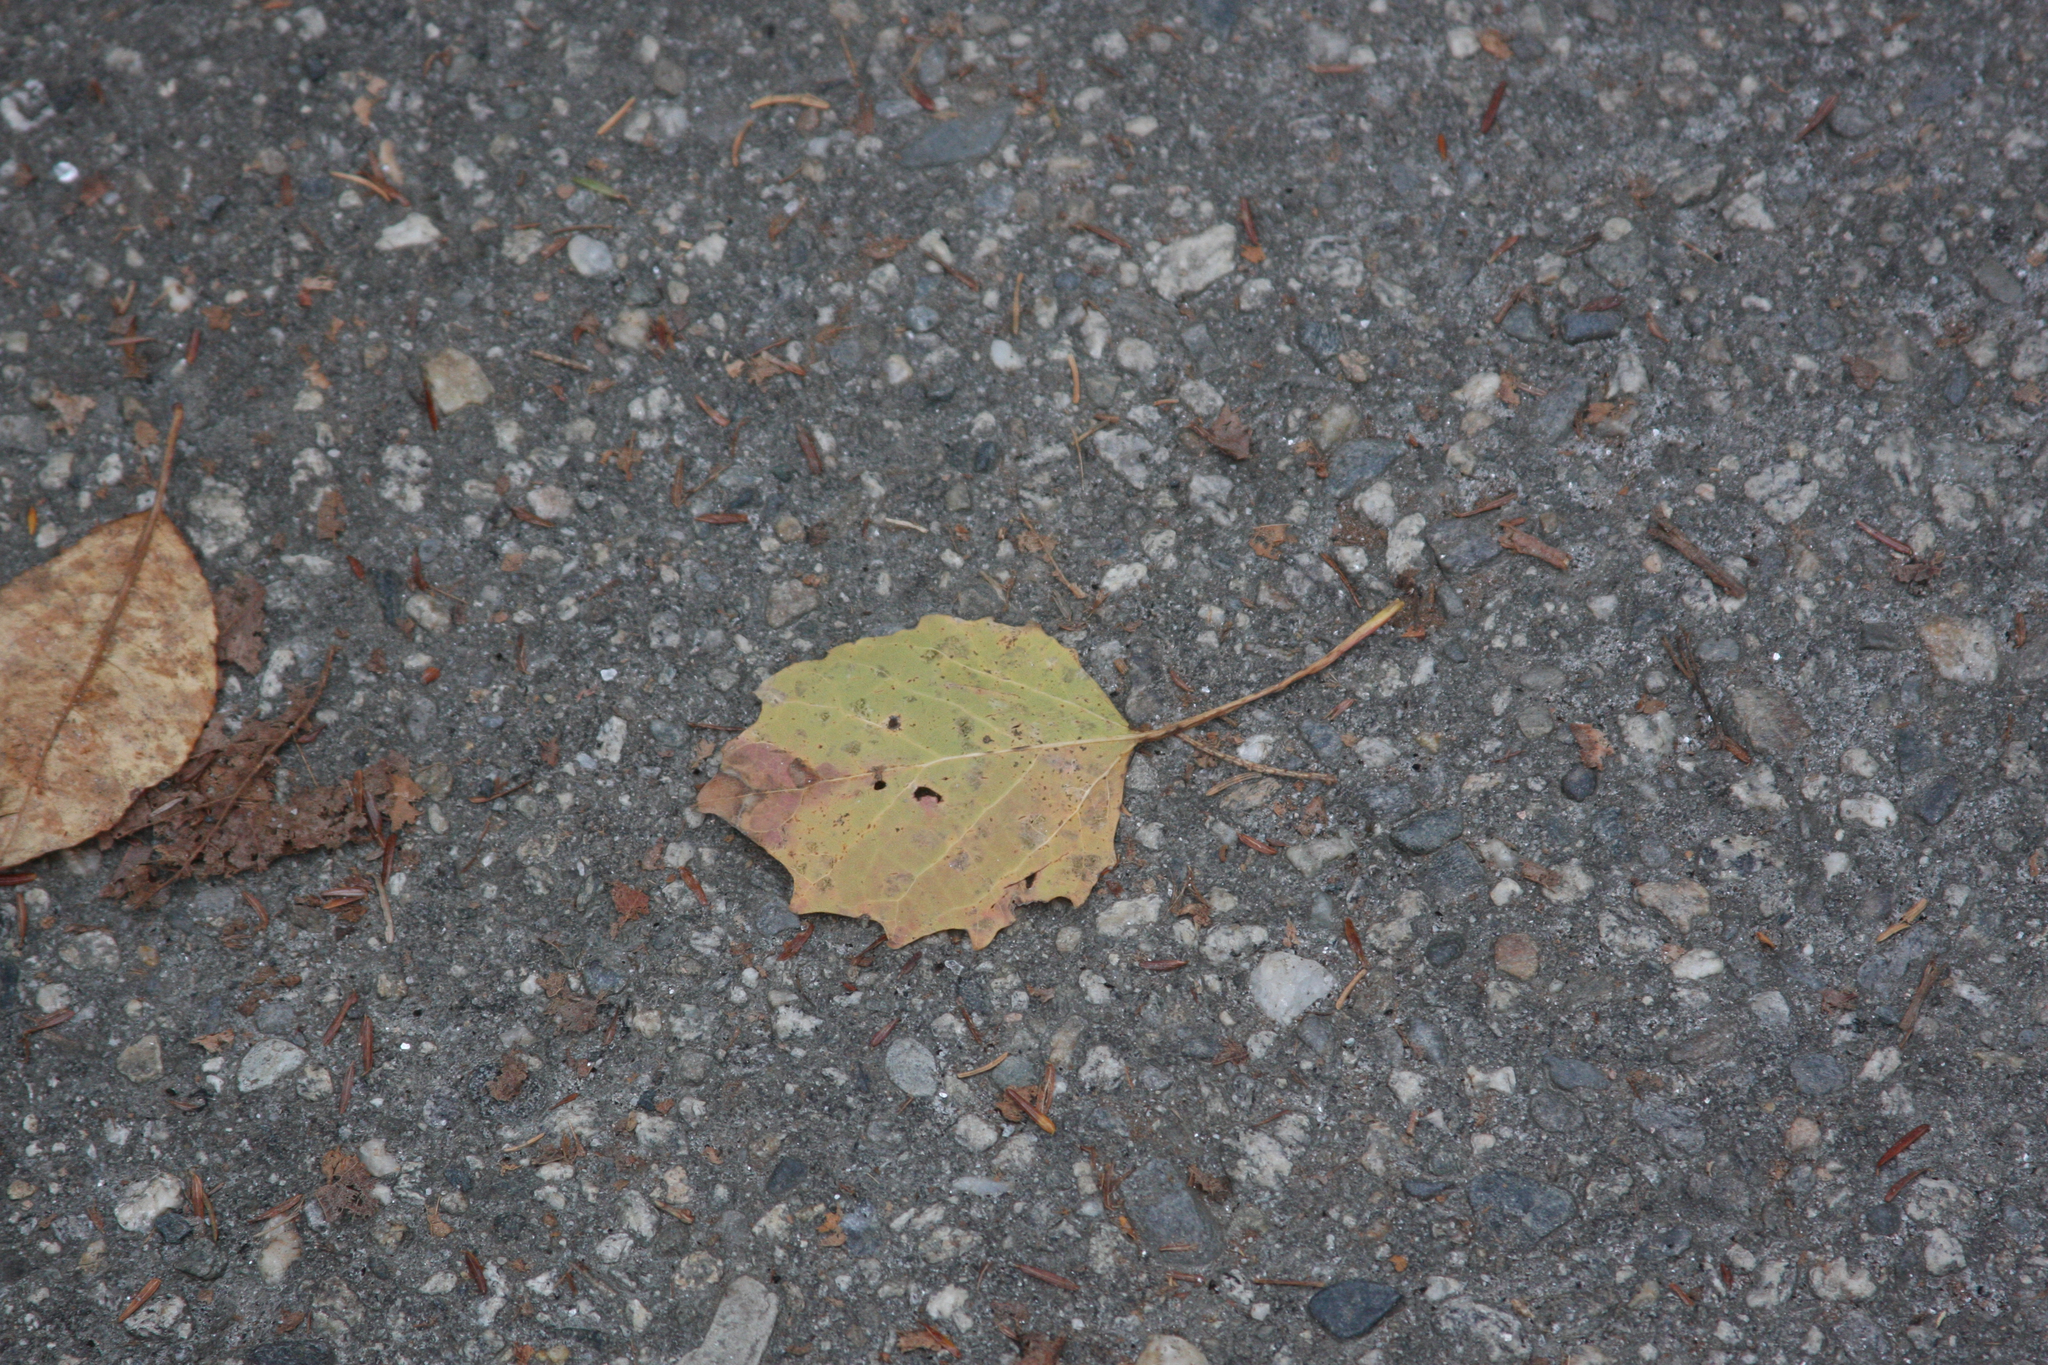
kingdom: Plantae
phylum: Tracheophyta
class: Magnoliopsida
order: Malpighiales
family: Salicaceae
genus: Populus
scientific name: Populus grandidentata
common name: Bigtooth aspen
